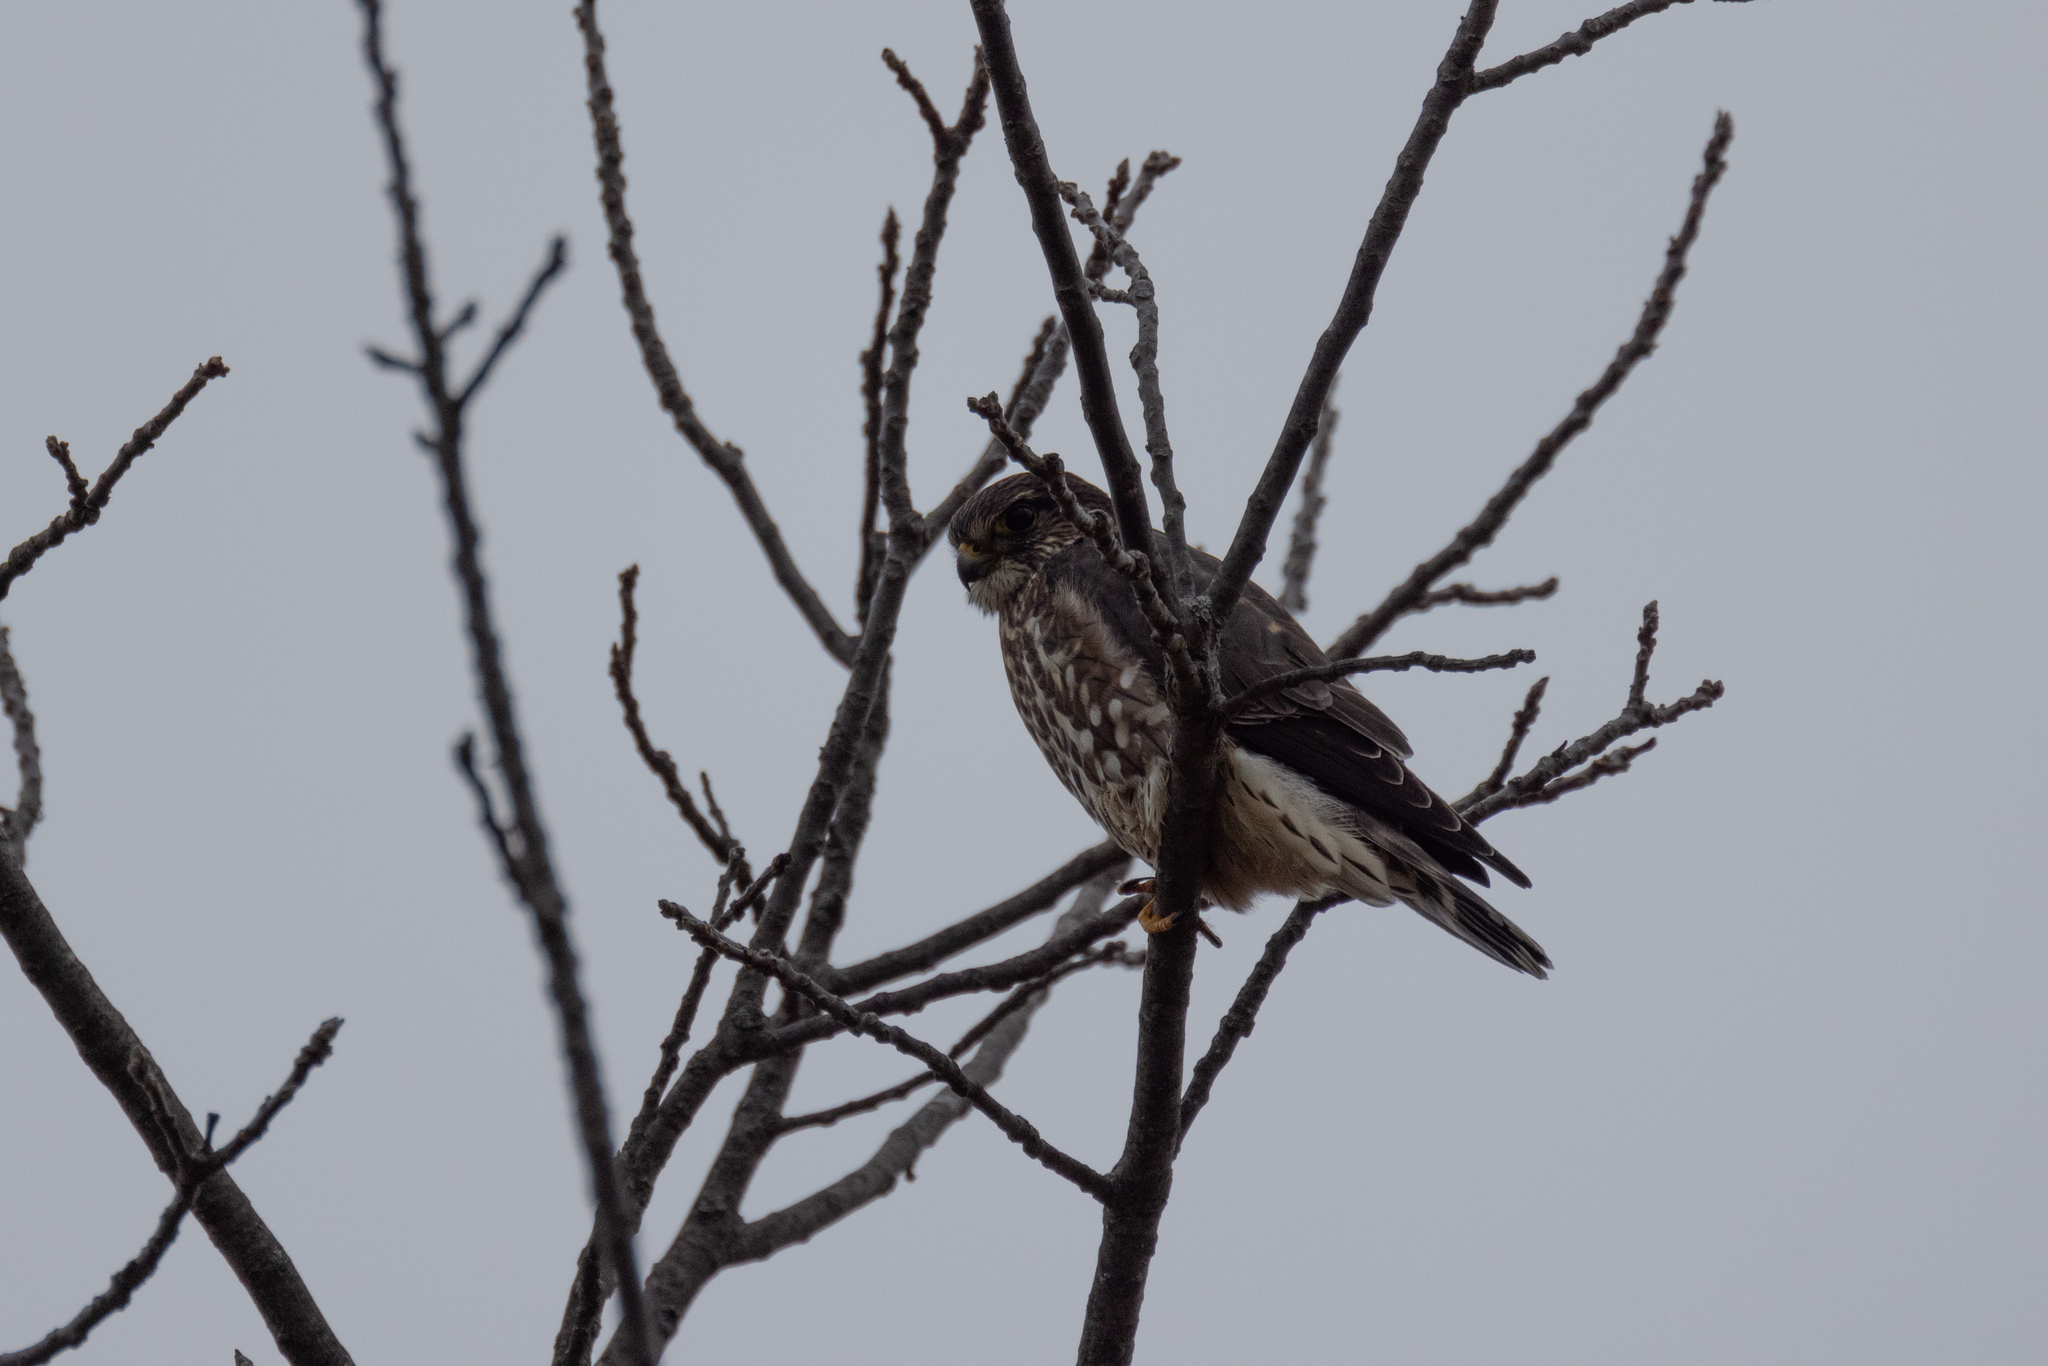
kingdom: Animalia
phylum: Chordata
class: Aves
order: Falconiformes
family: Falconidae
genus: Falco
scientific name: Falco columbarius
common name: Merlin
